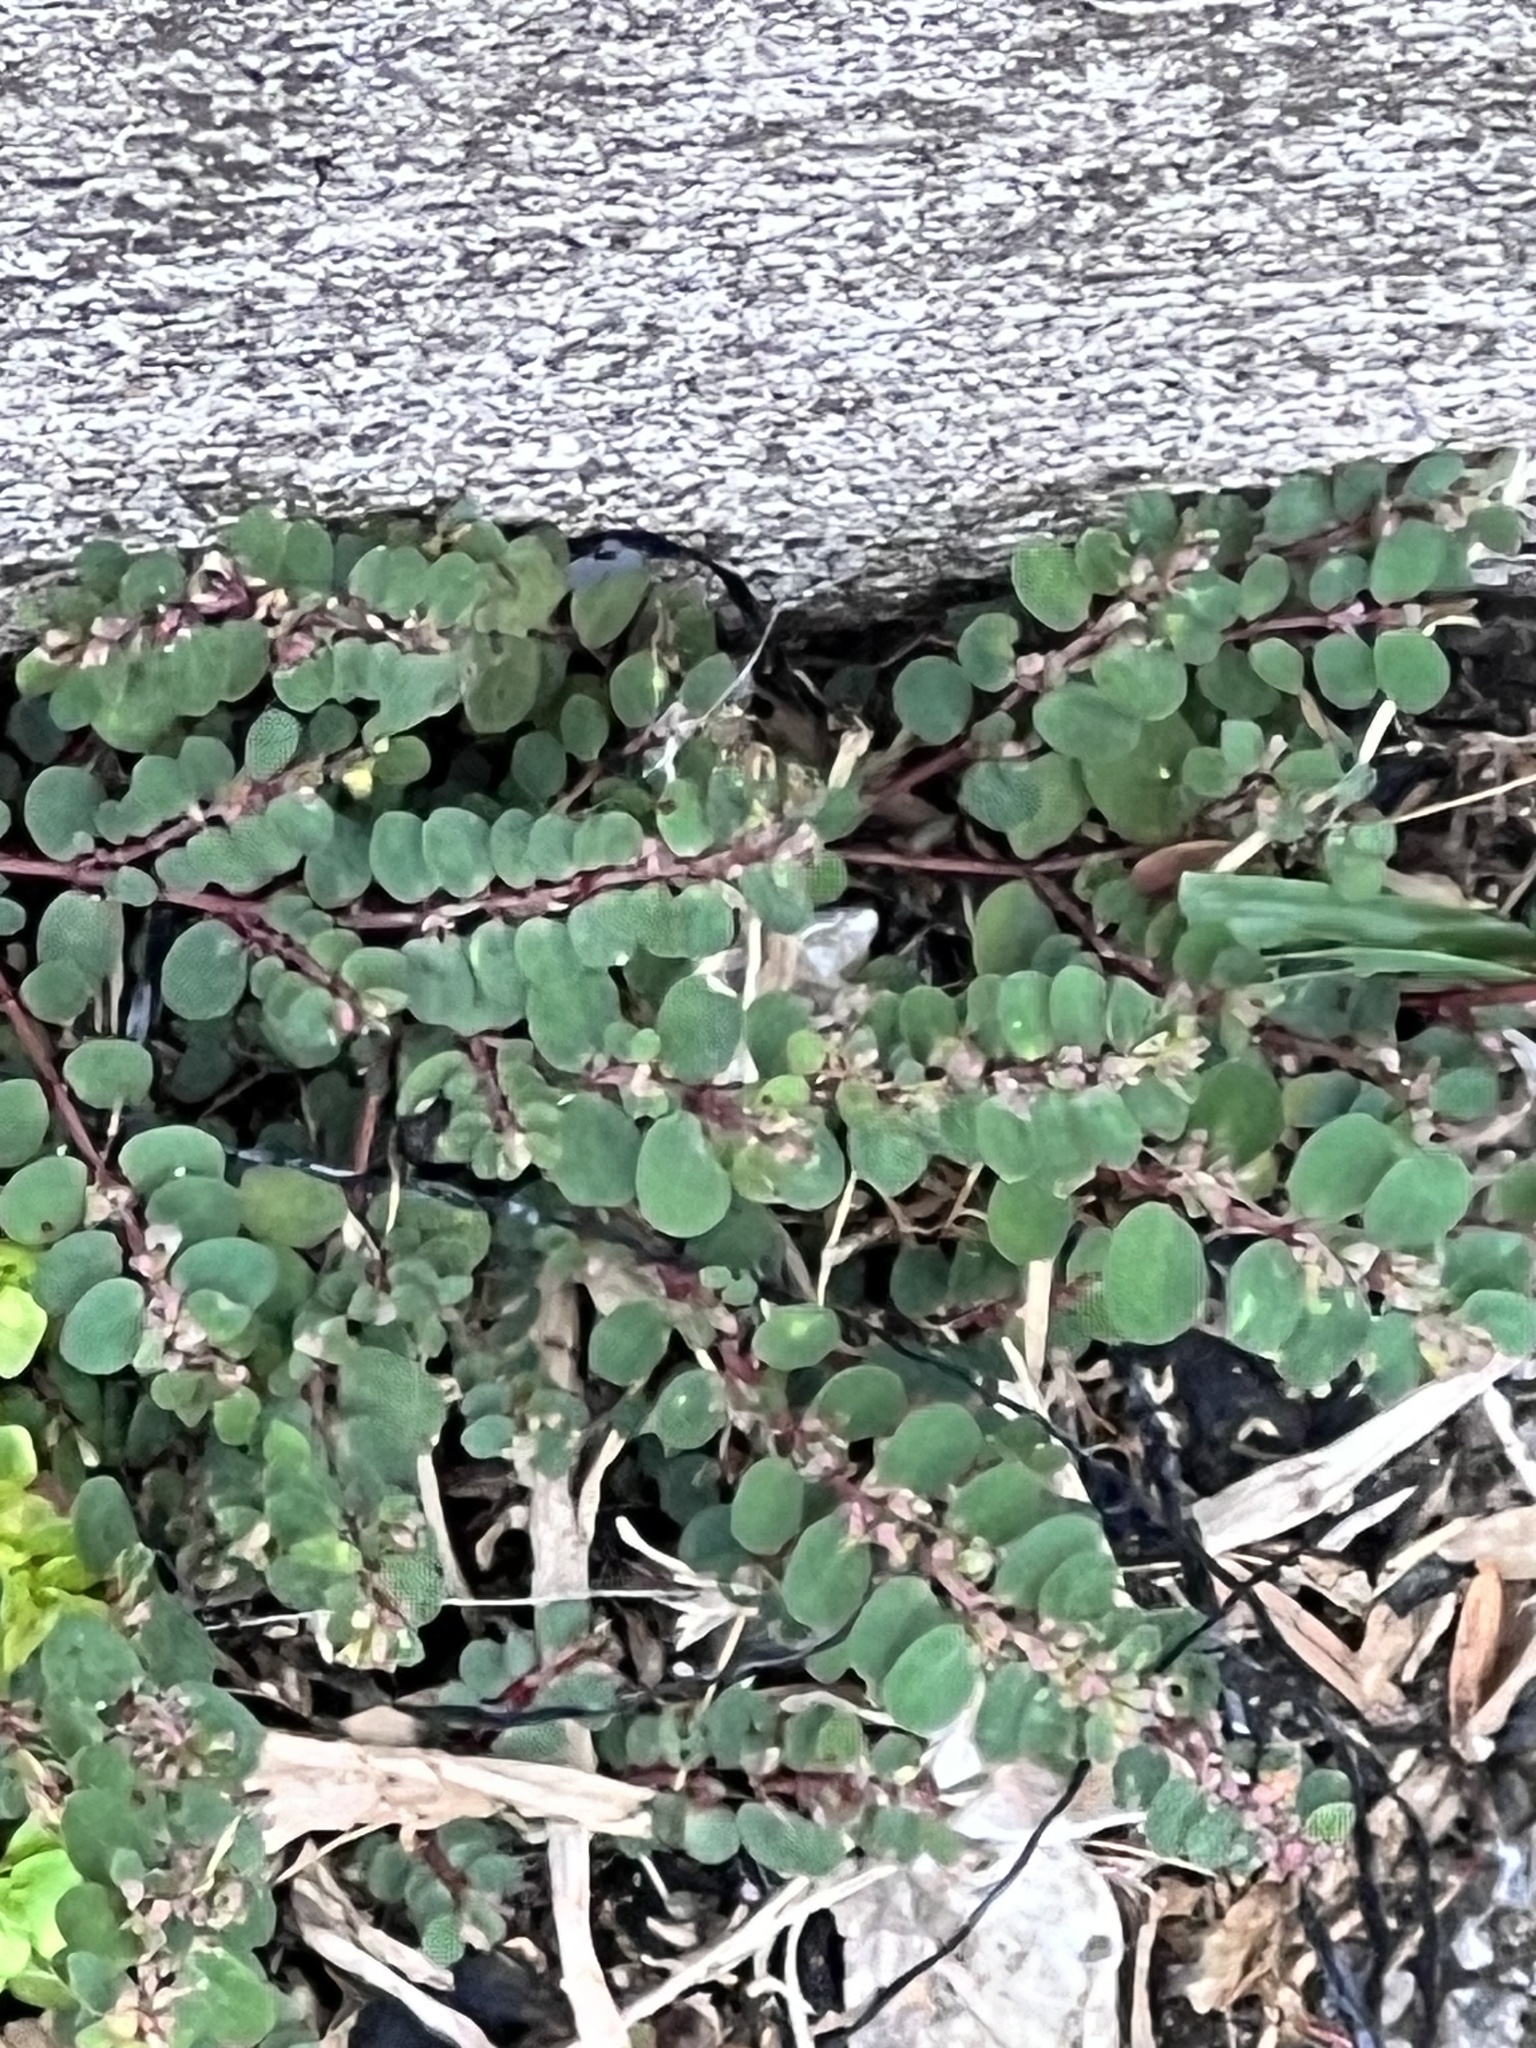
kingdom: Plantae
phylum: Tracheophyta
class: Magnoliopsida
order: Malpighiales
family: Euphorbiaceae
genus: Euphorbia
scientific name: Euphorbia prostrata
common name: Prostrate sandmat
